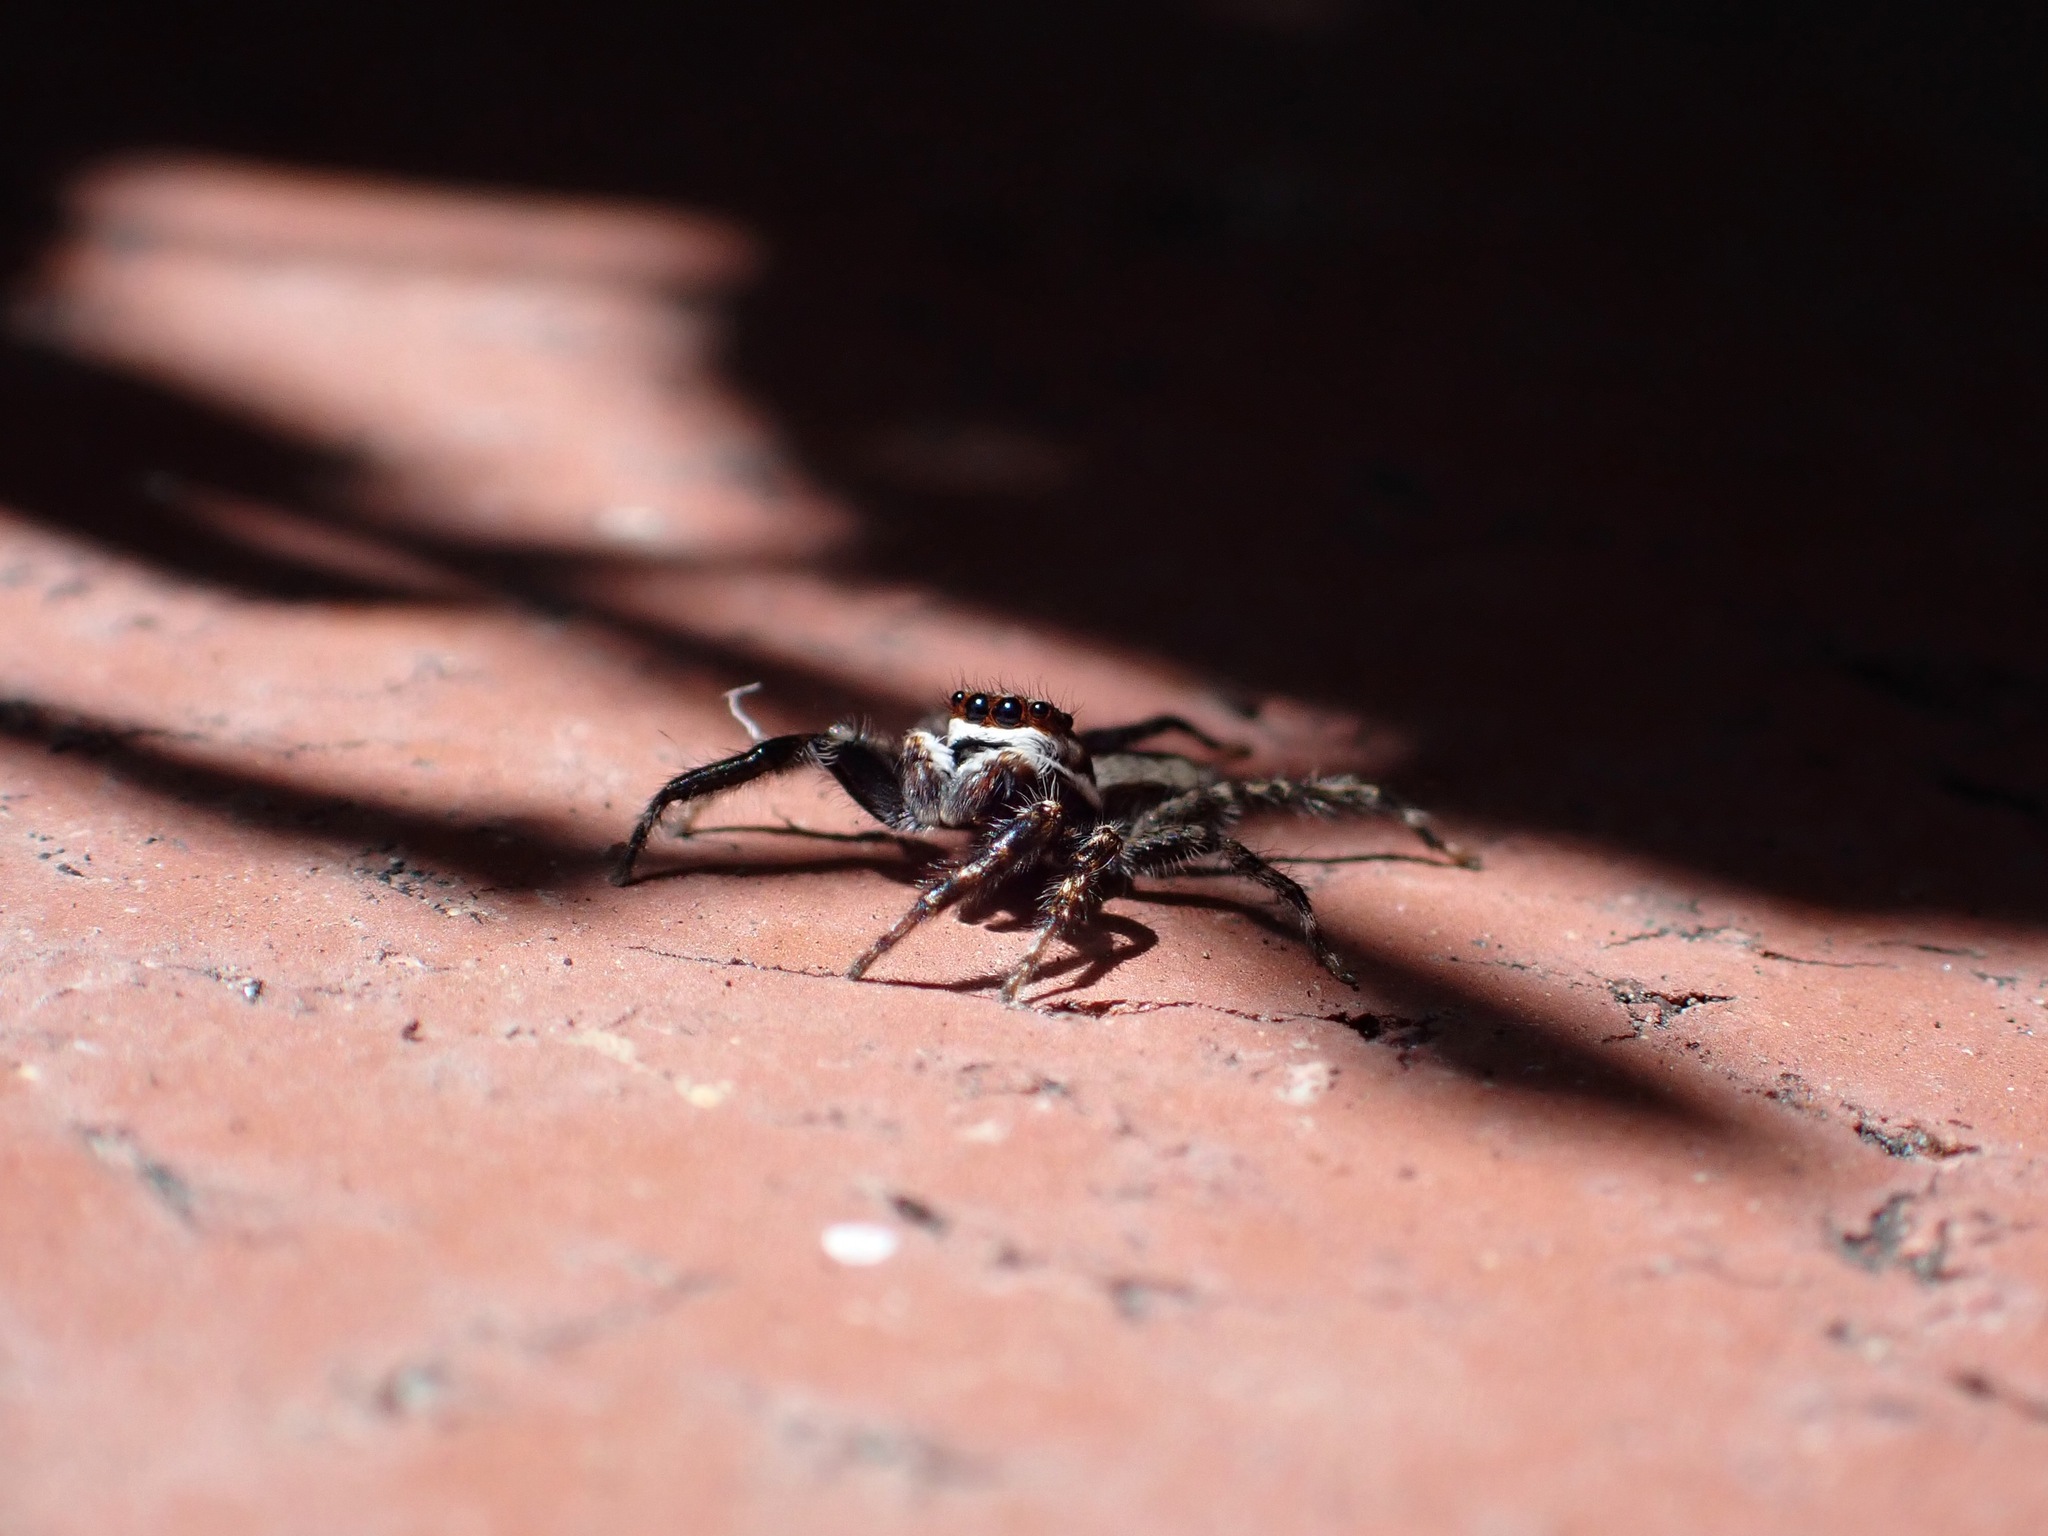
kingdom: Animalia
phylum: Arthropoda
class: Arachnida
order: Araneae
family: Salticidae
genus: Menemerus
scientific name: Menemerus bivittatus
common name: Gray wall jumper
